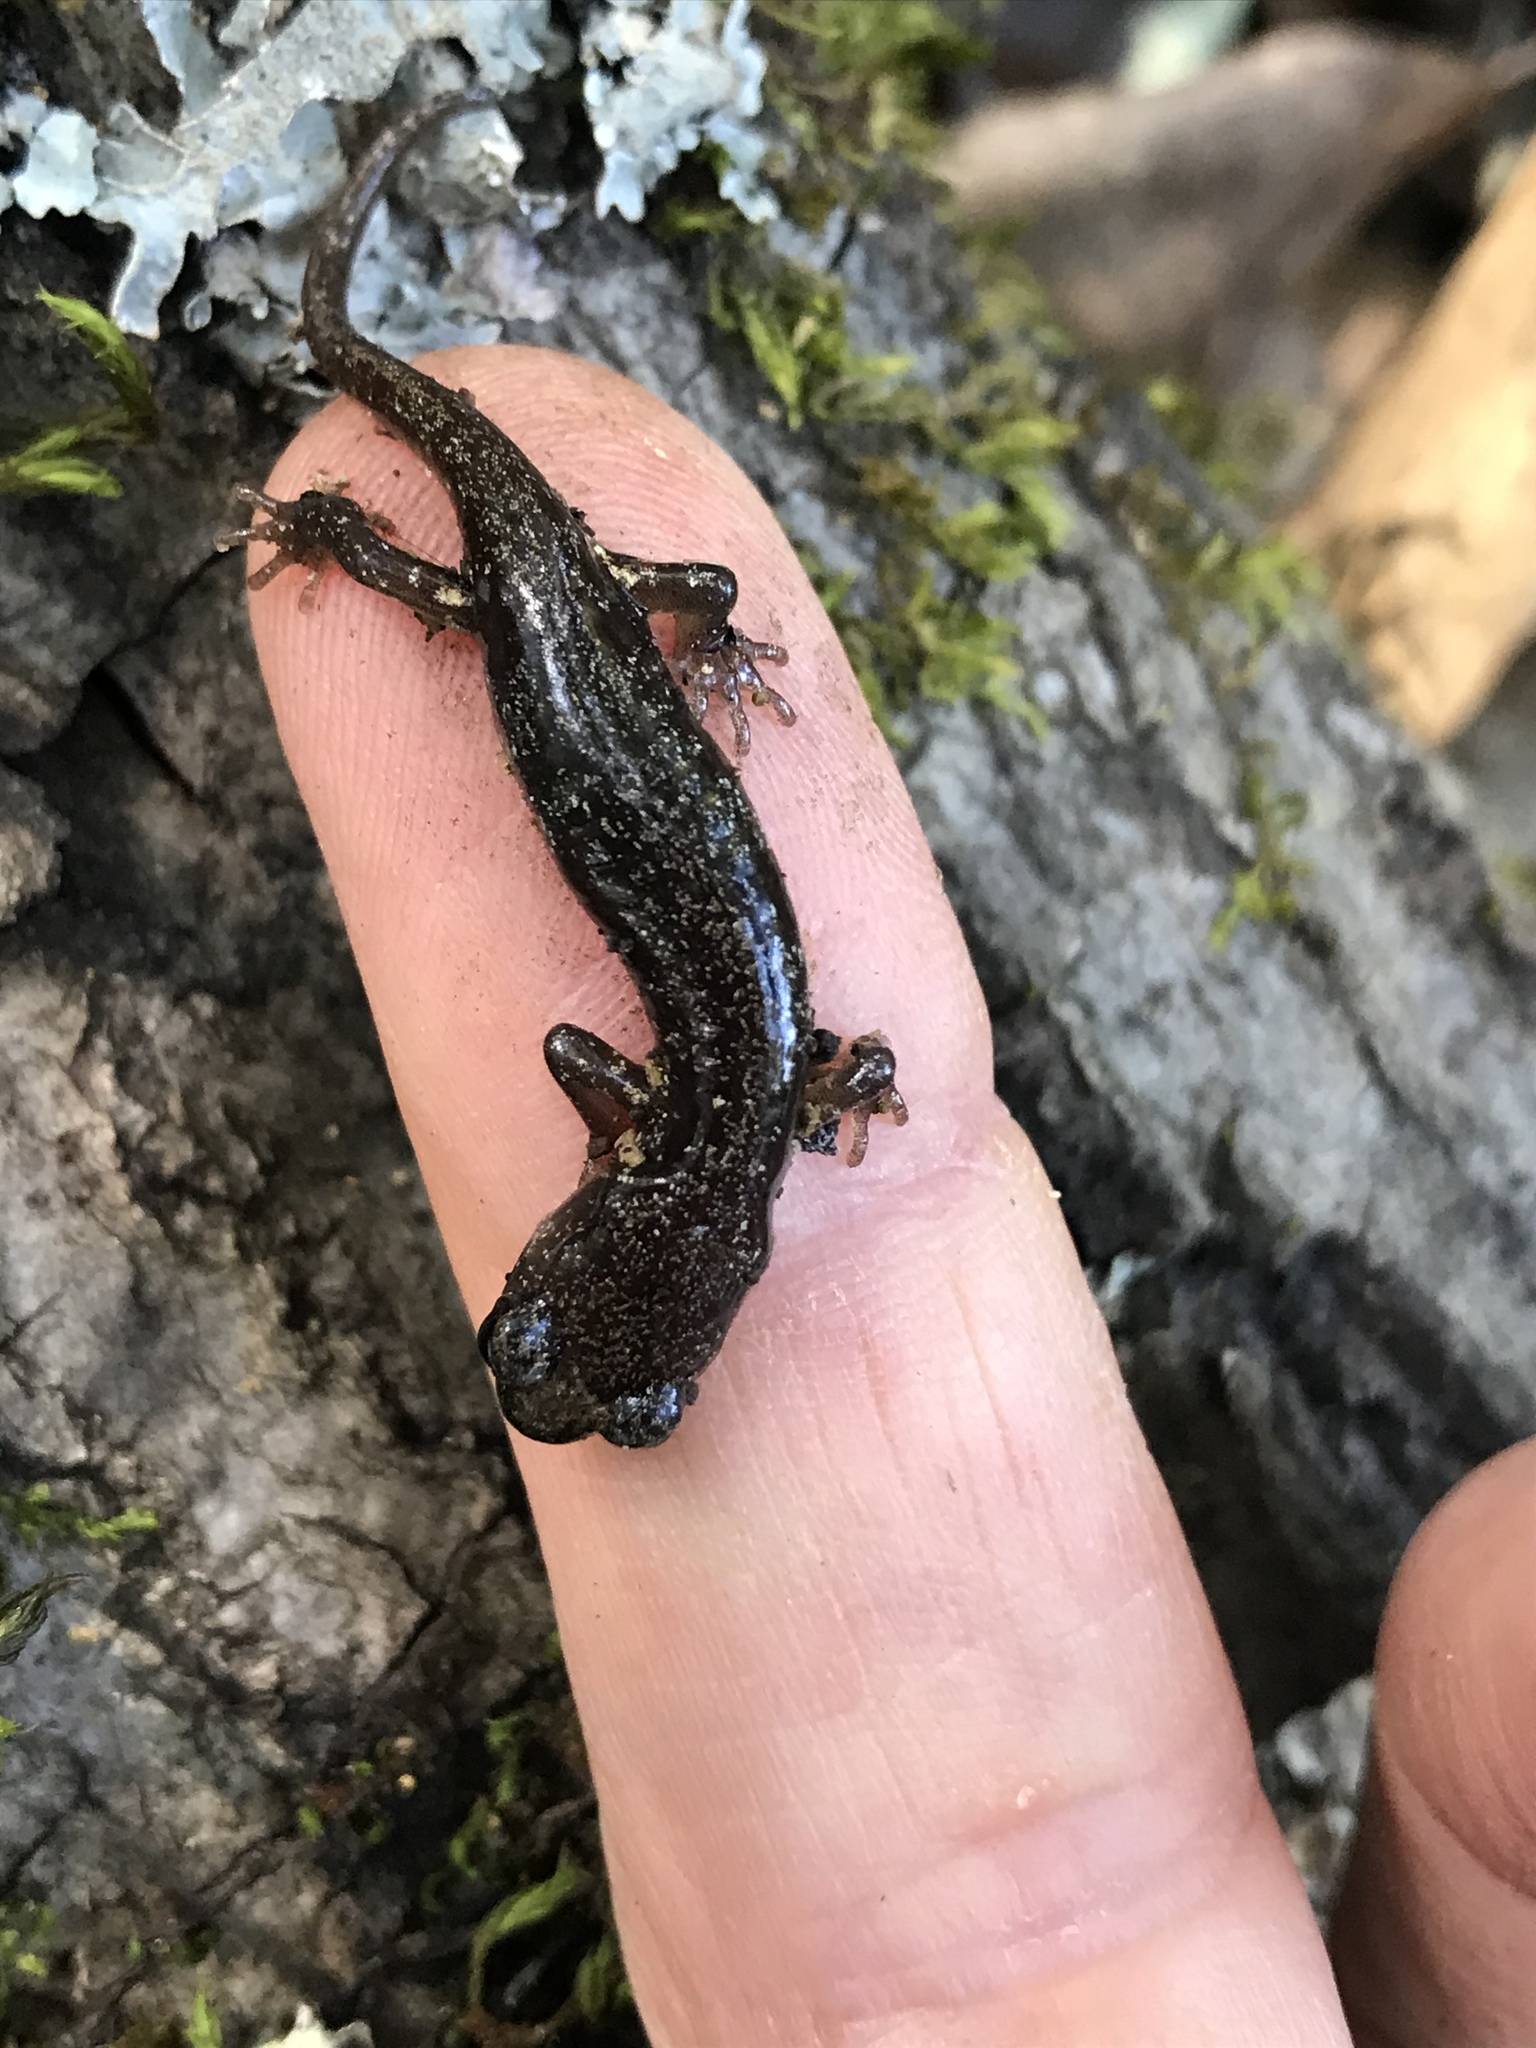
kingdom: Animalia
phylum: Chordata
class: Amphibia
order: Caudata
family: Plethodontidae
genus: Aneides
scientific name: Aneides lugubris
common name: Arboreal salamander
